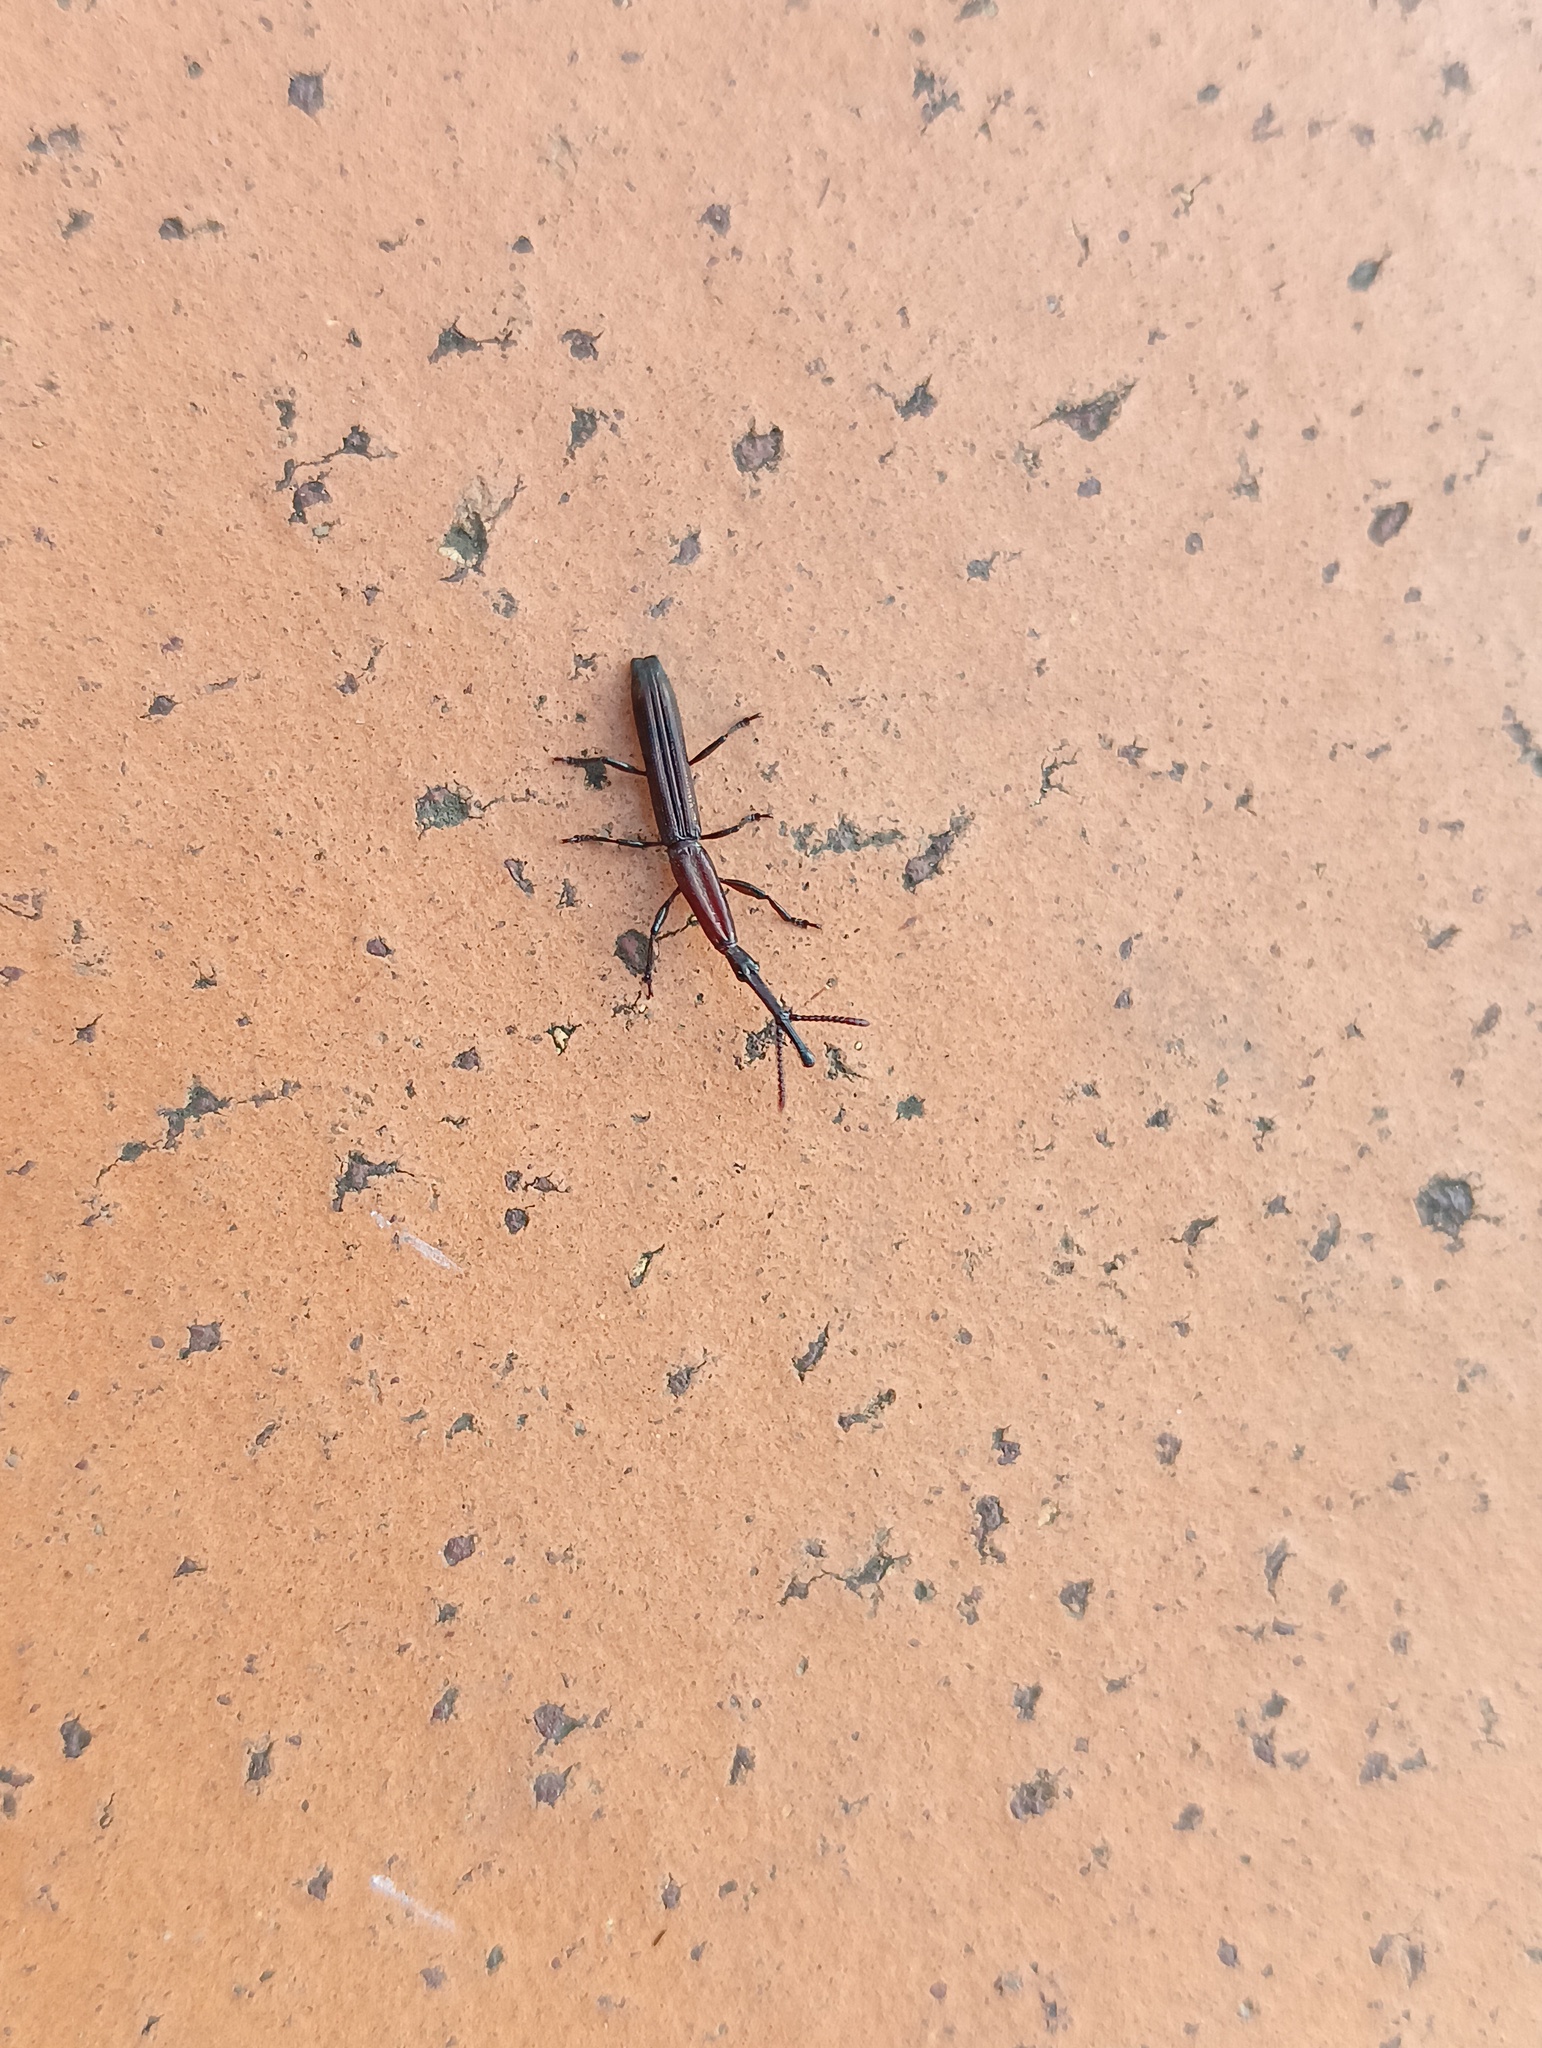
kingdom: Animalia
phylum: Arthropoda
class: Insecta
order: Coleoptera
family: Brentidae
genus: Eubactrus
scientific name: Eubactrus semiaeneus
